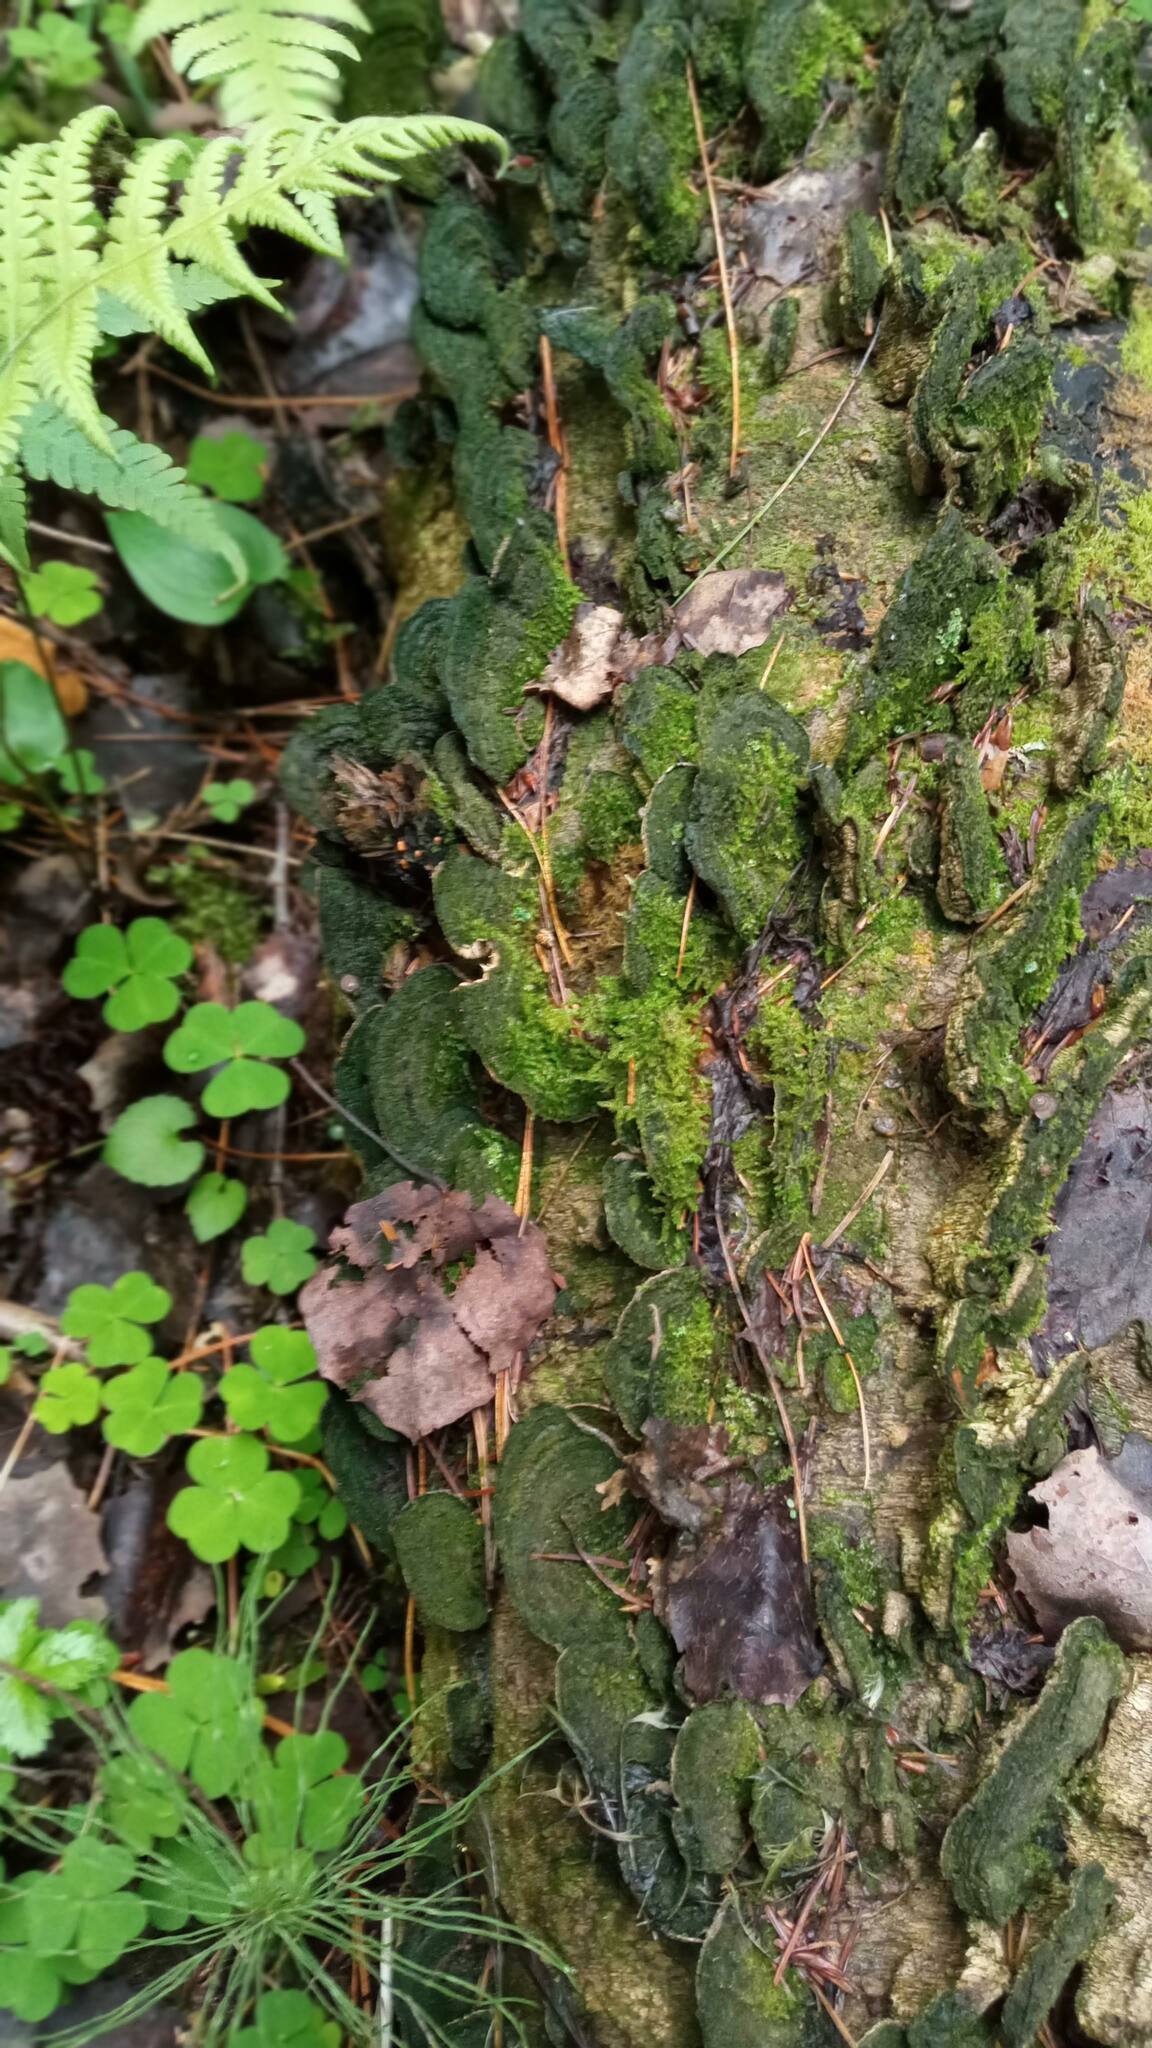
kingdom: Fungi
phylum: Basidiomycota
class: Agaricomycetes
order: Polyporales
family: Cerrenaceae
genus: Cerrena
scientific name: Cerrena unicolor
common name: Mossy maze polypore
